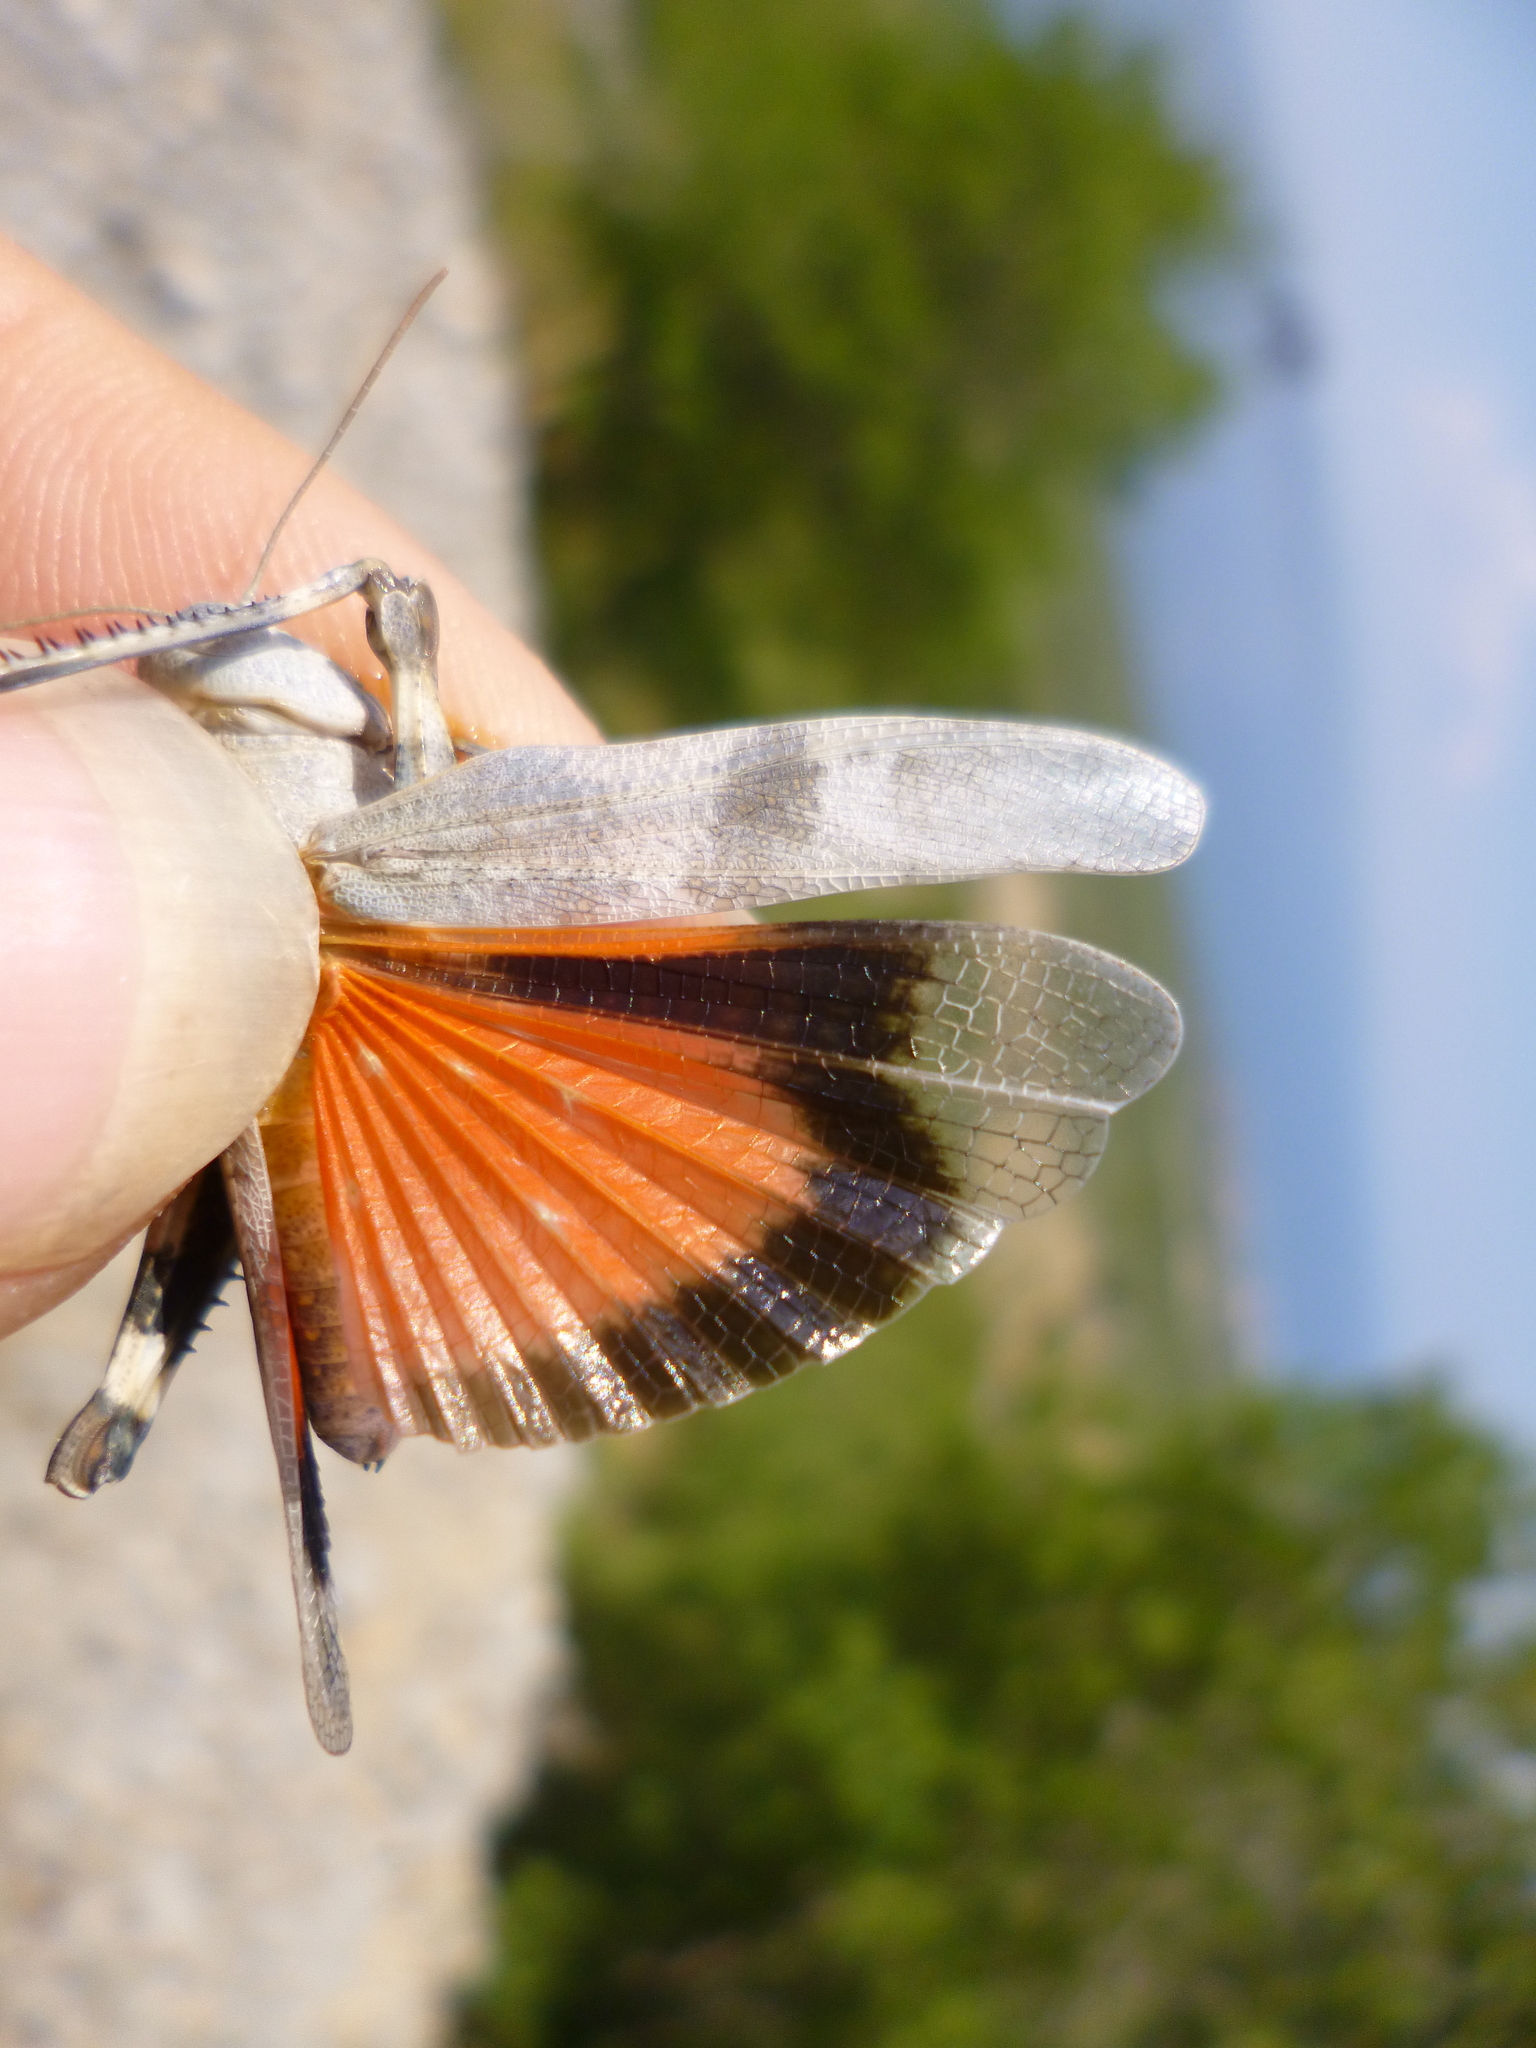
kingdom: Animalia
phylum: Arthropoda
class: Insecta
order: Orthoptera
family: Acrididae
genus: Oedipoda
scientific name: Oedipoda germanica
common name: Red band-winged grasshopper
